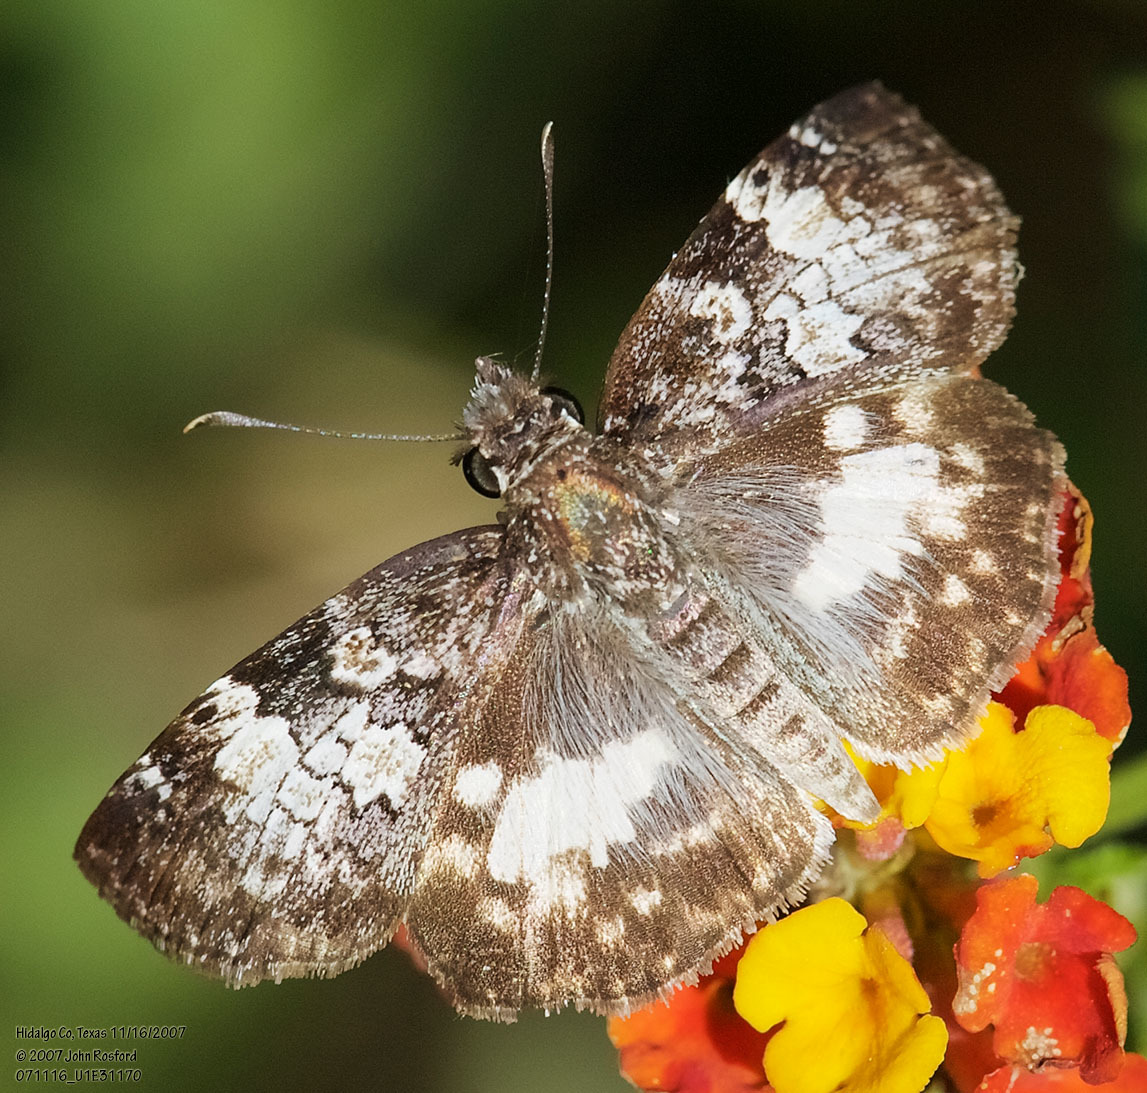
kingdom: Animalia
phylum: Arthropoda
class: Insecta
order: Lepidoptera
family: Hesperiidae
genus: Chiothion
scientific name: Chiothion georgina
